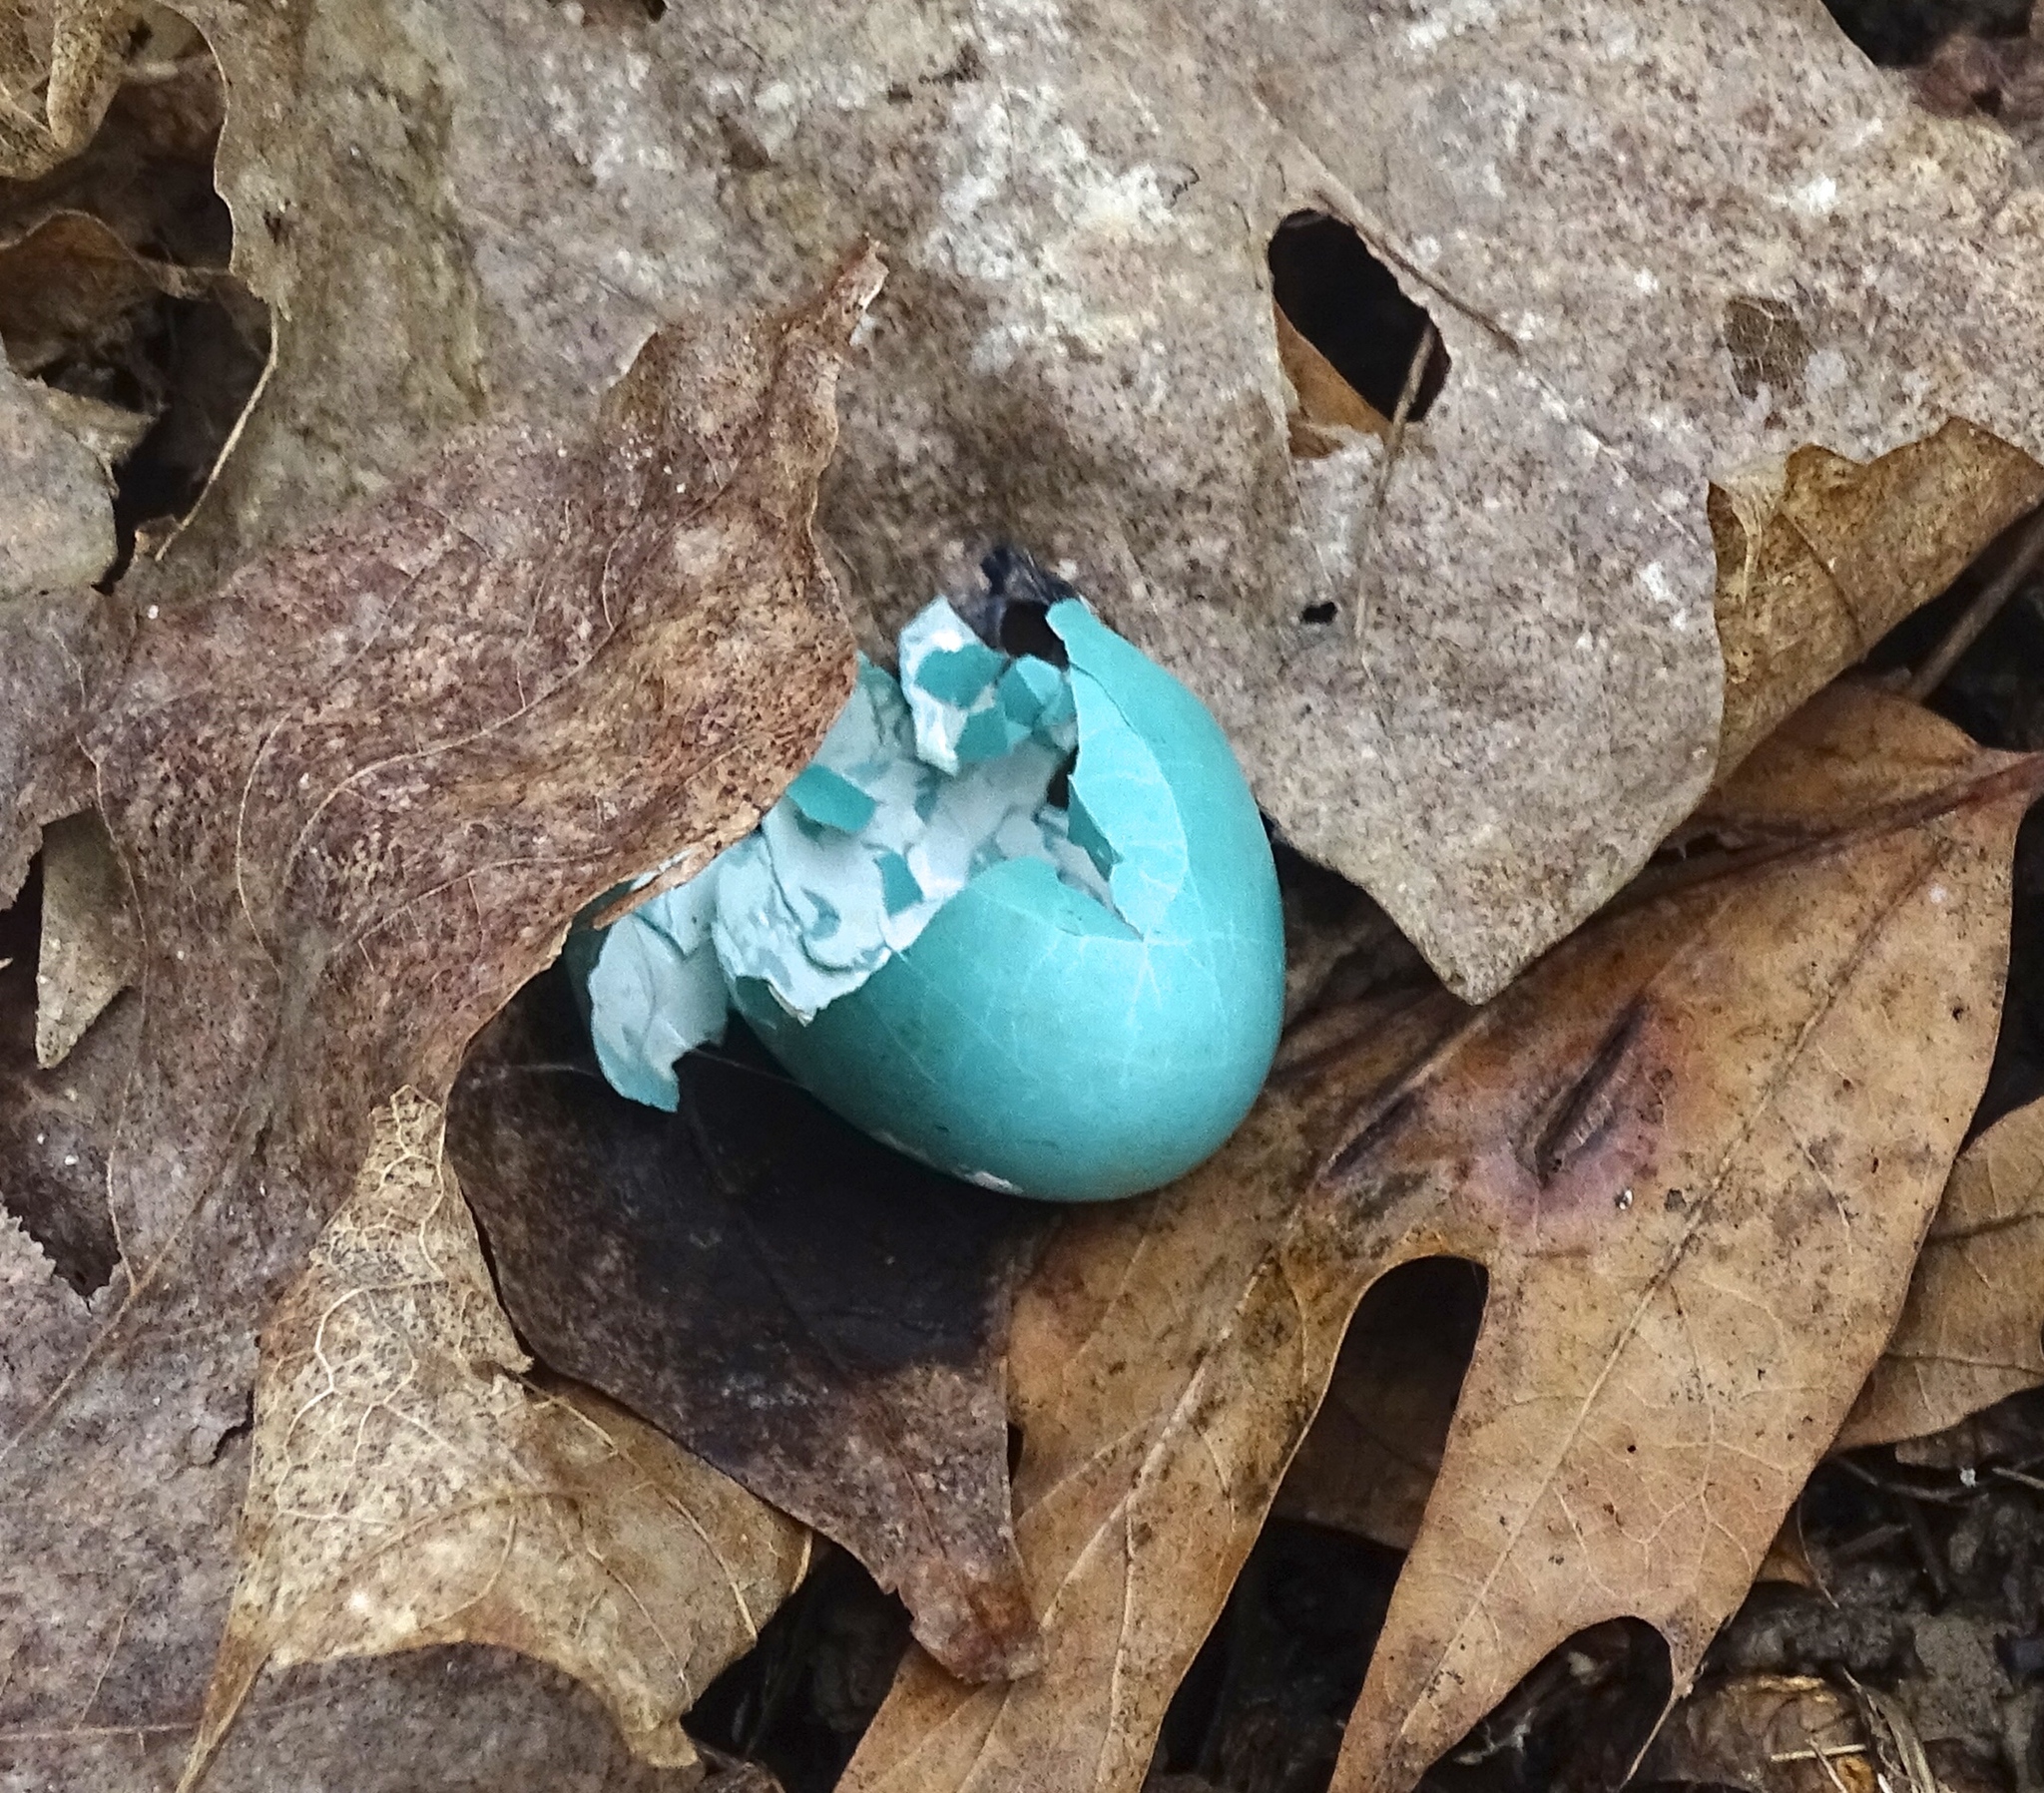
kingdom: Animalia
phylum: Chordata
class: Aves
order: Passeriformes
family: Turdidae
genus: Turdus
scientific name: Turdus migratorius
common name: American robin
